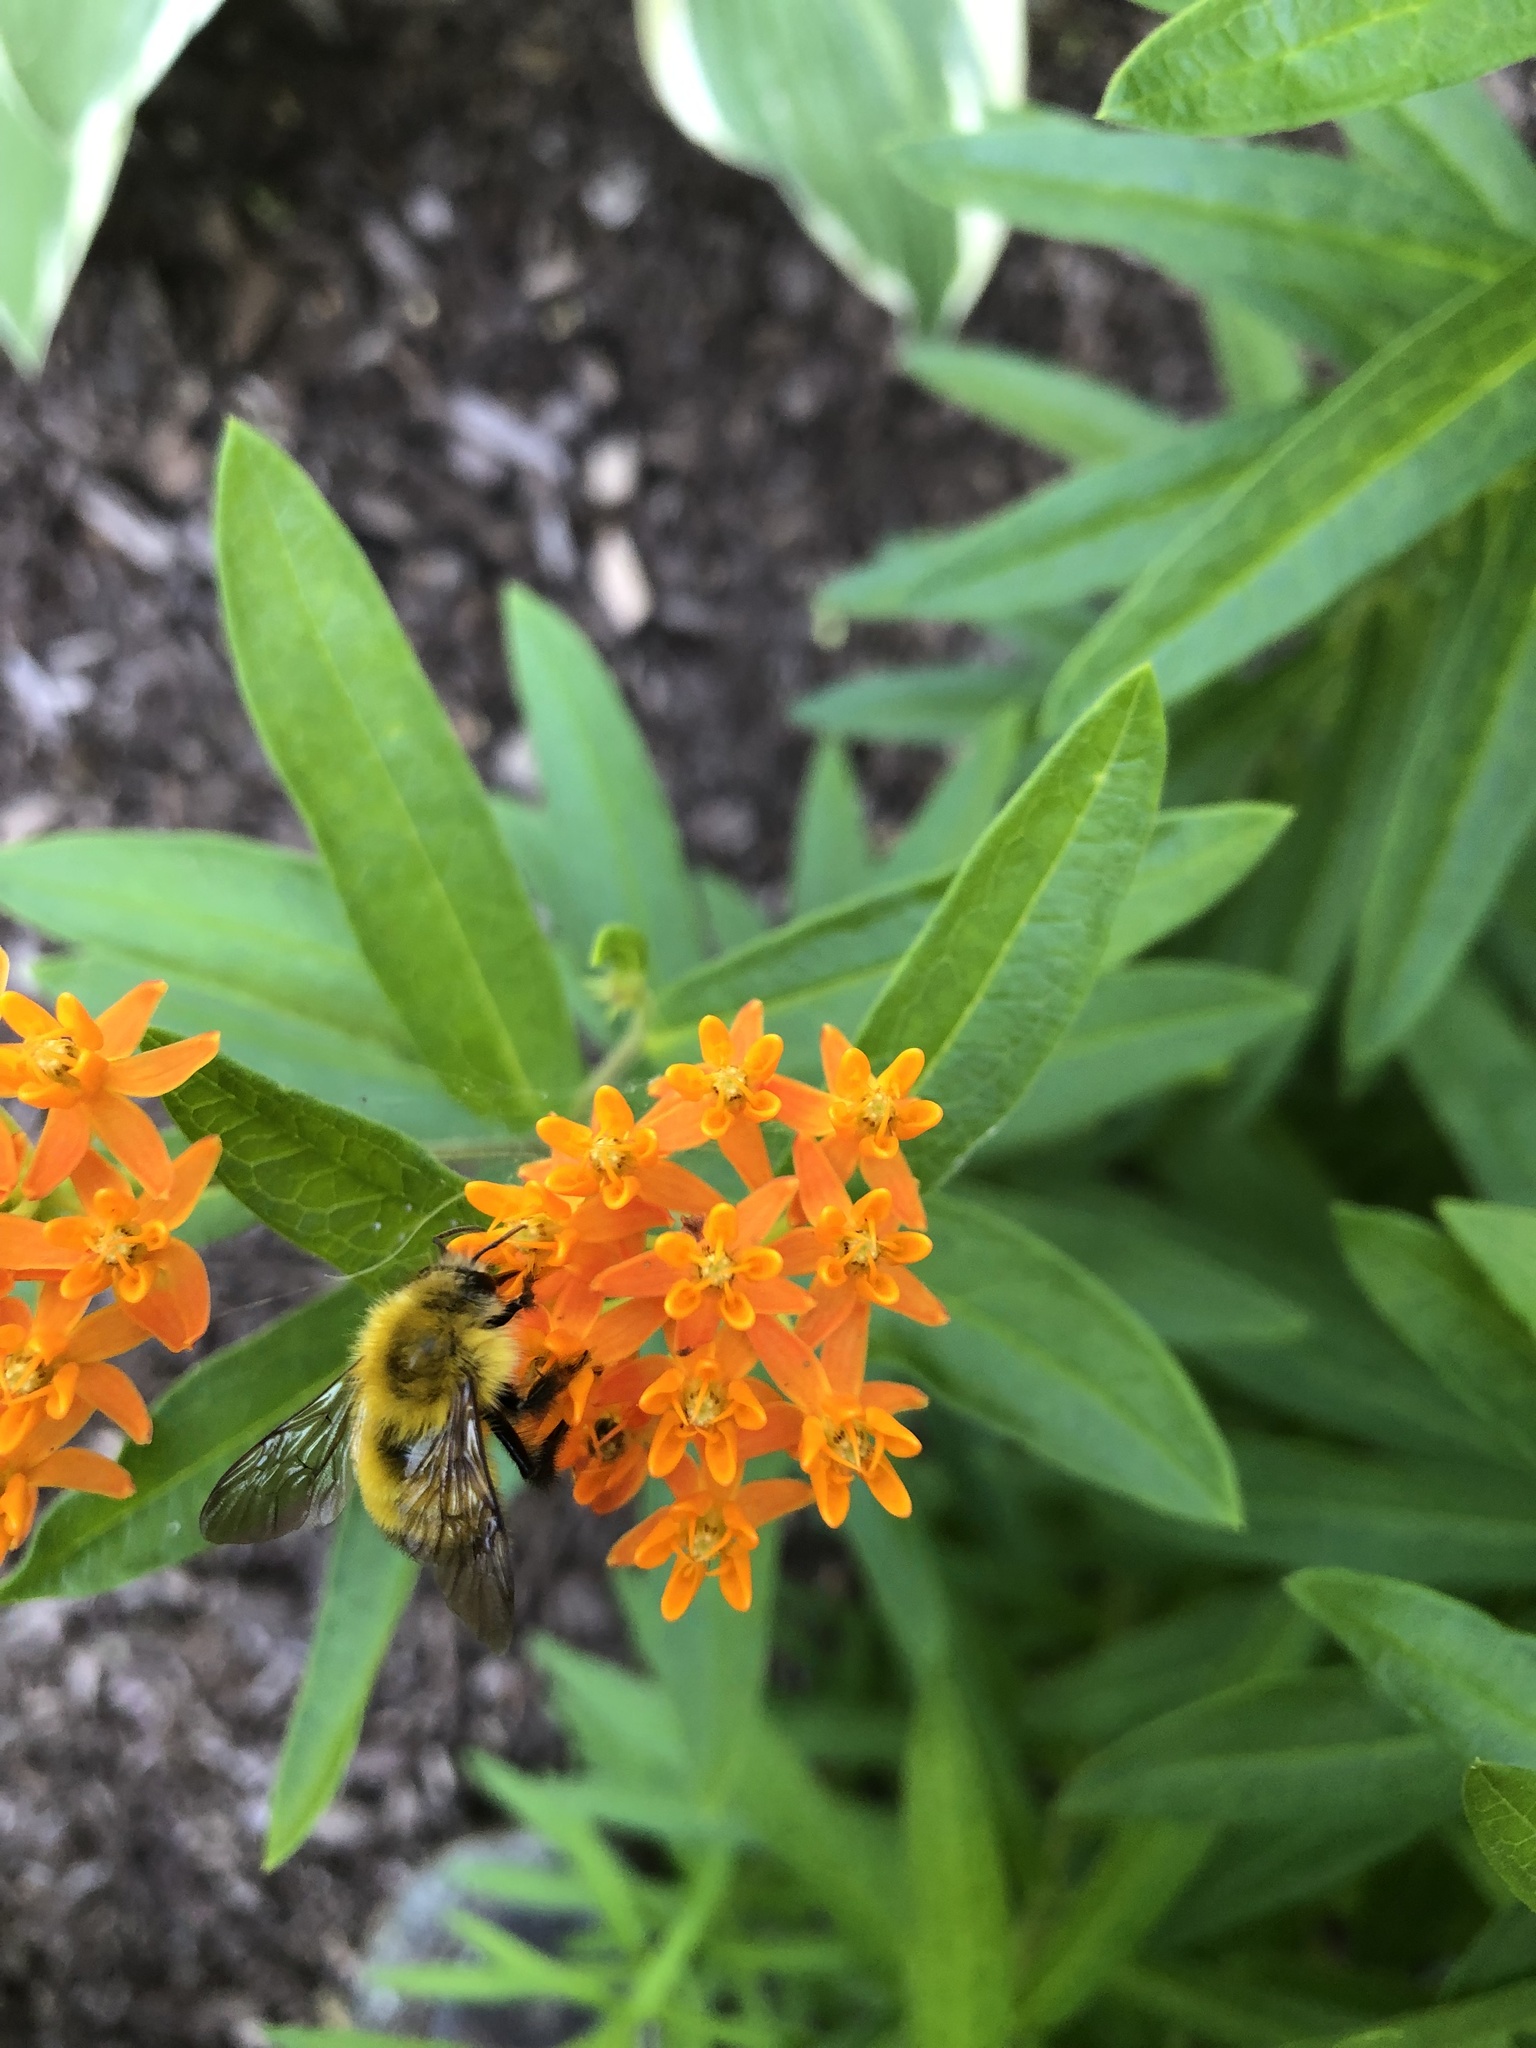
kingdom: Animalia
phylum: Arthropoda
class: Insecta
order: Hymenoptera
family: Apidae
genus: Bombus
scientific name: Bombus perplexus
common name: Confusing bumble bee
